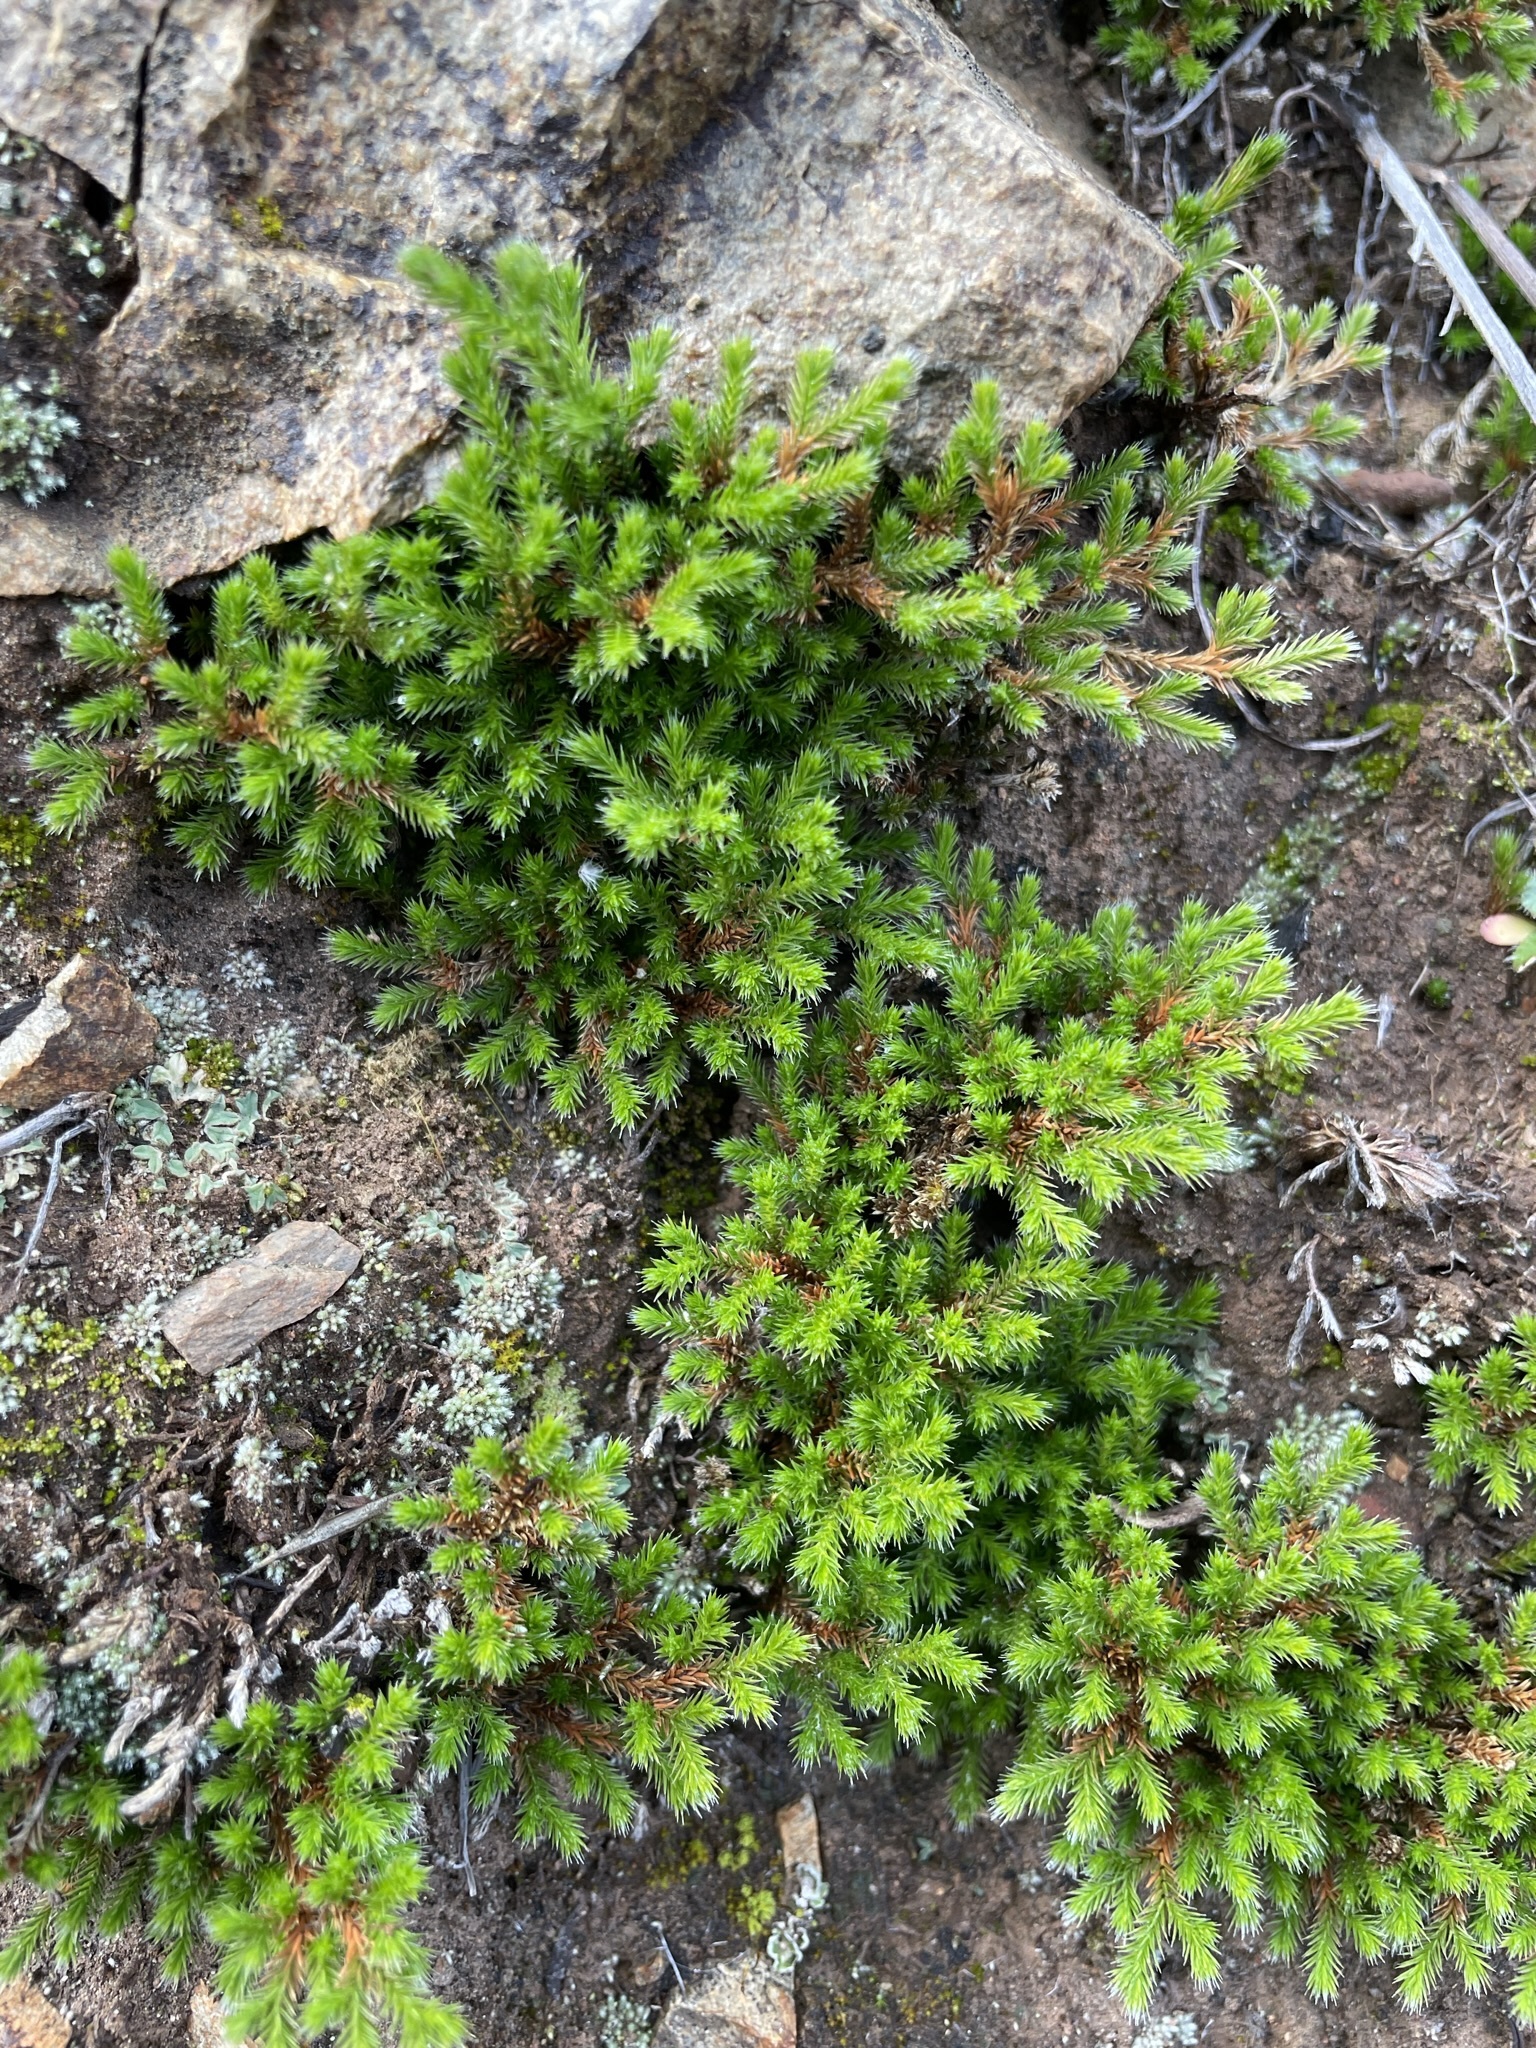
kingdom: Plantae
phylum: Tracheophyta
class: Lycopodiopsida
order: Selaginellales
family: Selaginellaceae
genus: Selaginella
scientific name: Selaginella bigelovii
